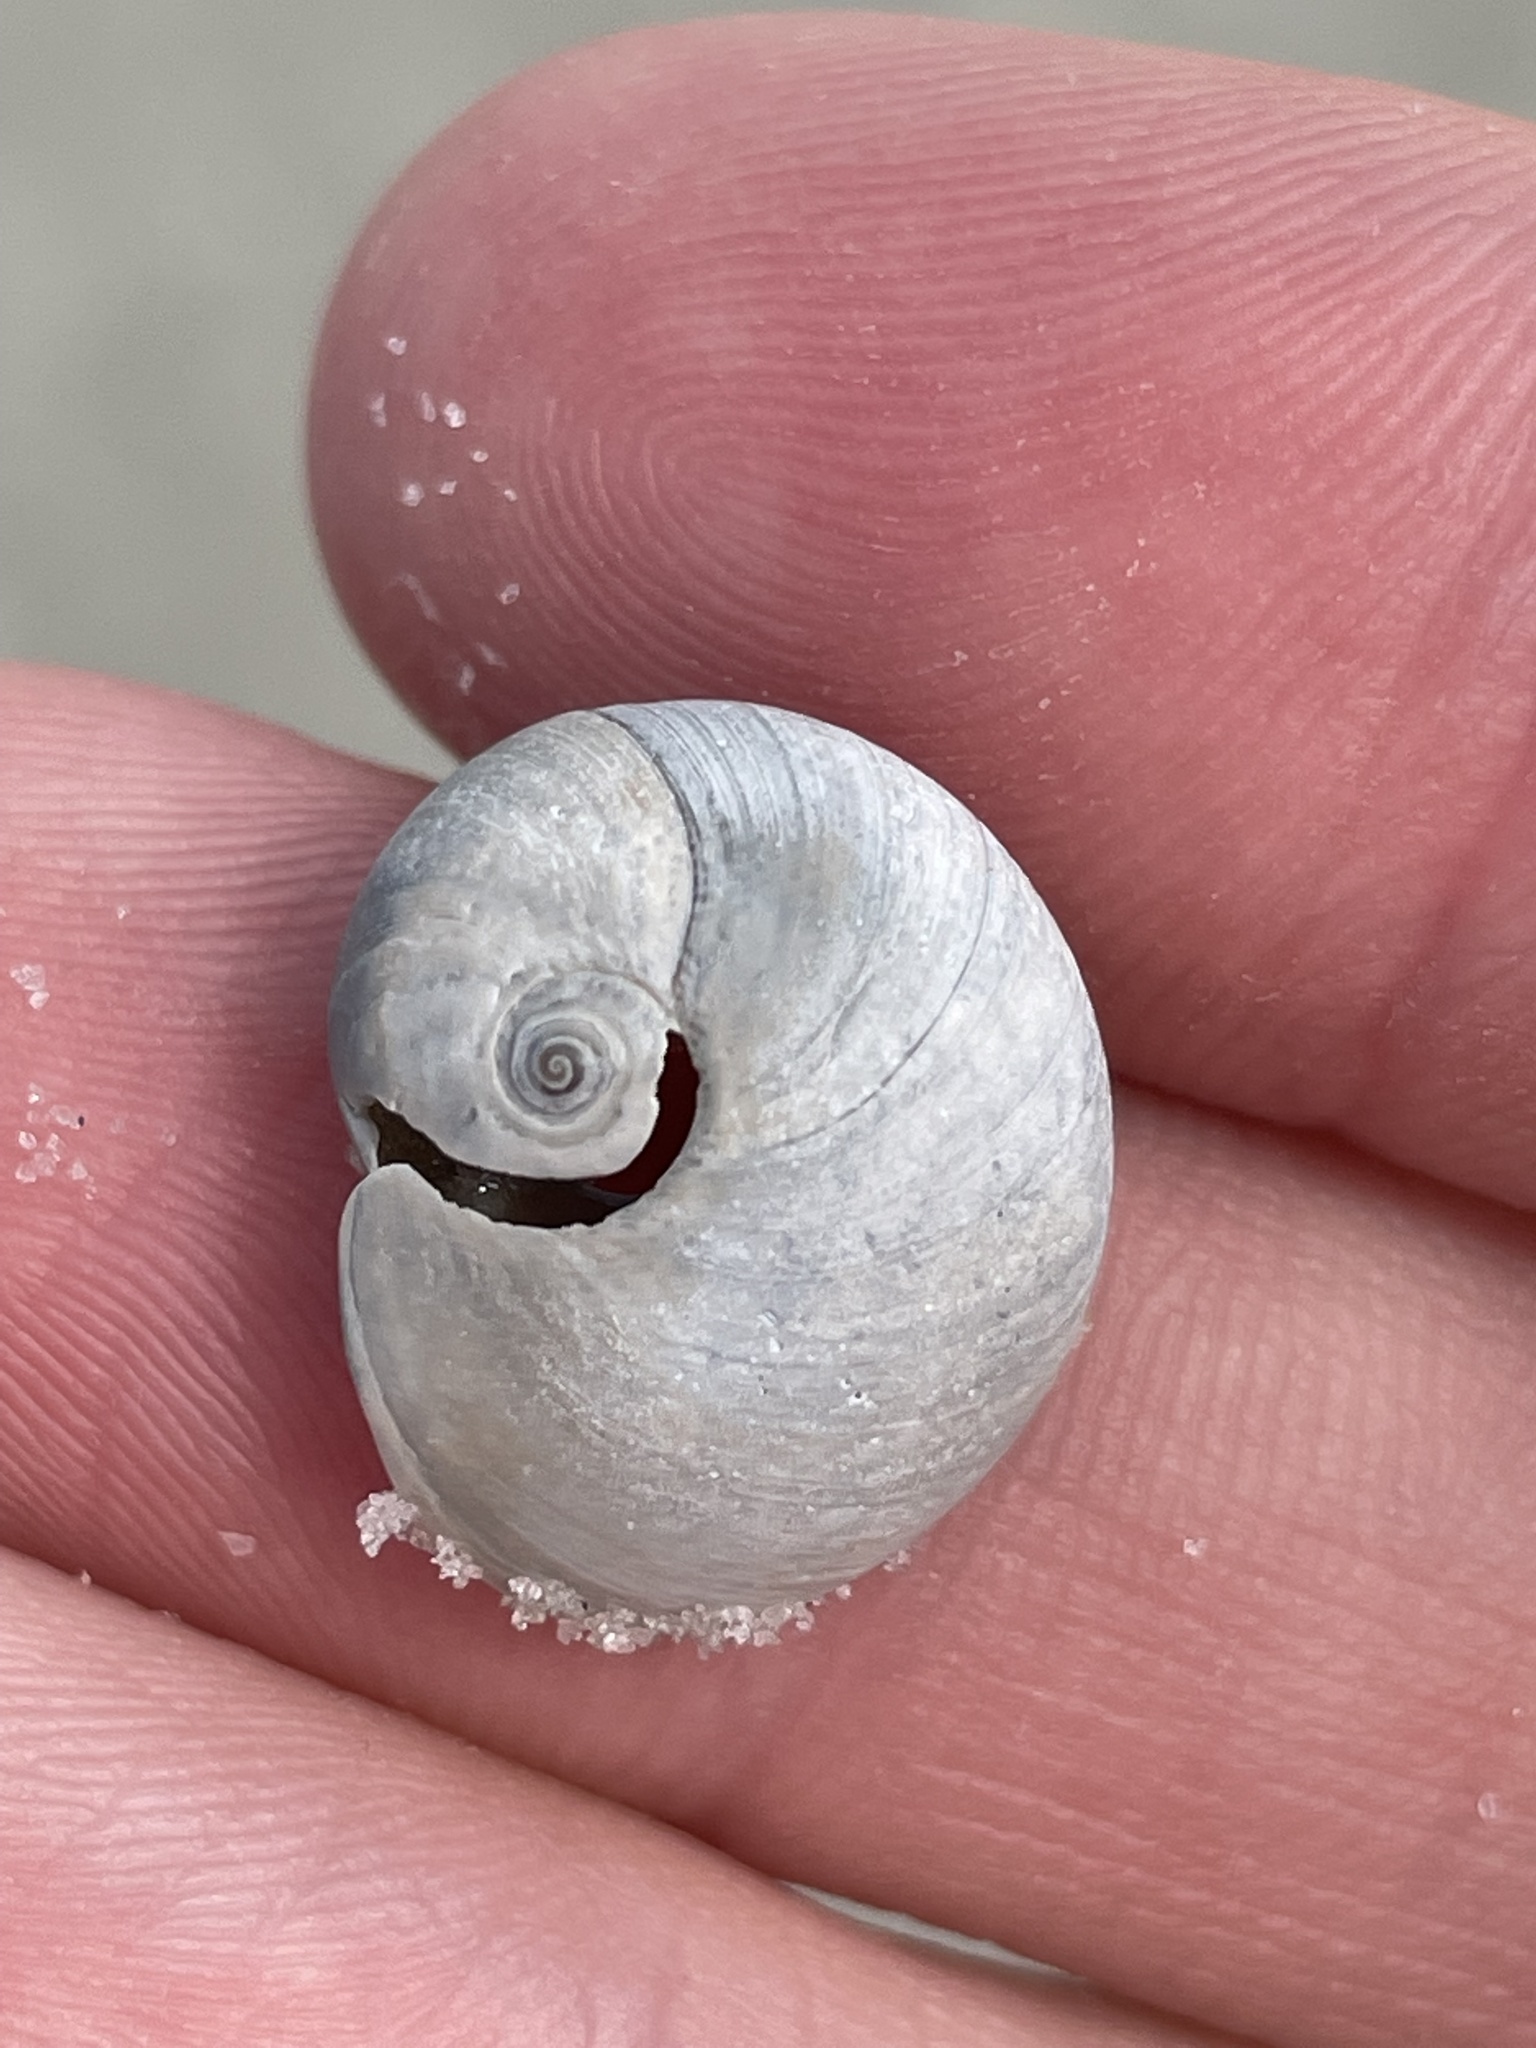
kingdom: Animalia
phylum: Mollusca
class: Gastropoda
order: Littorinimorpha
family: Naticidae
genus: Neverita
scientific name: Neverita duplicata
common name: Lobed moonsnail
